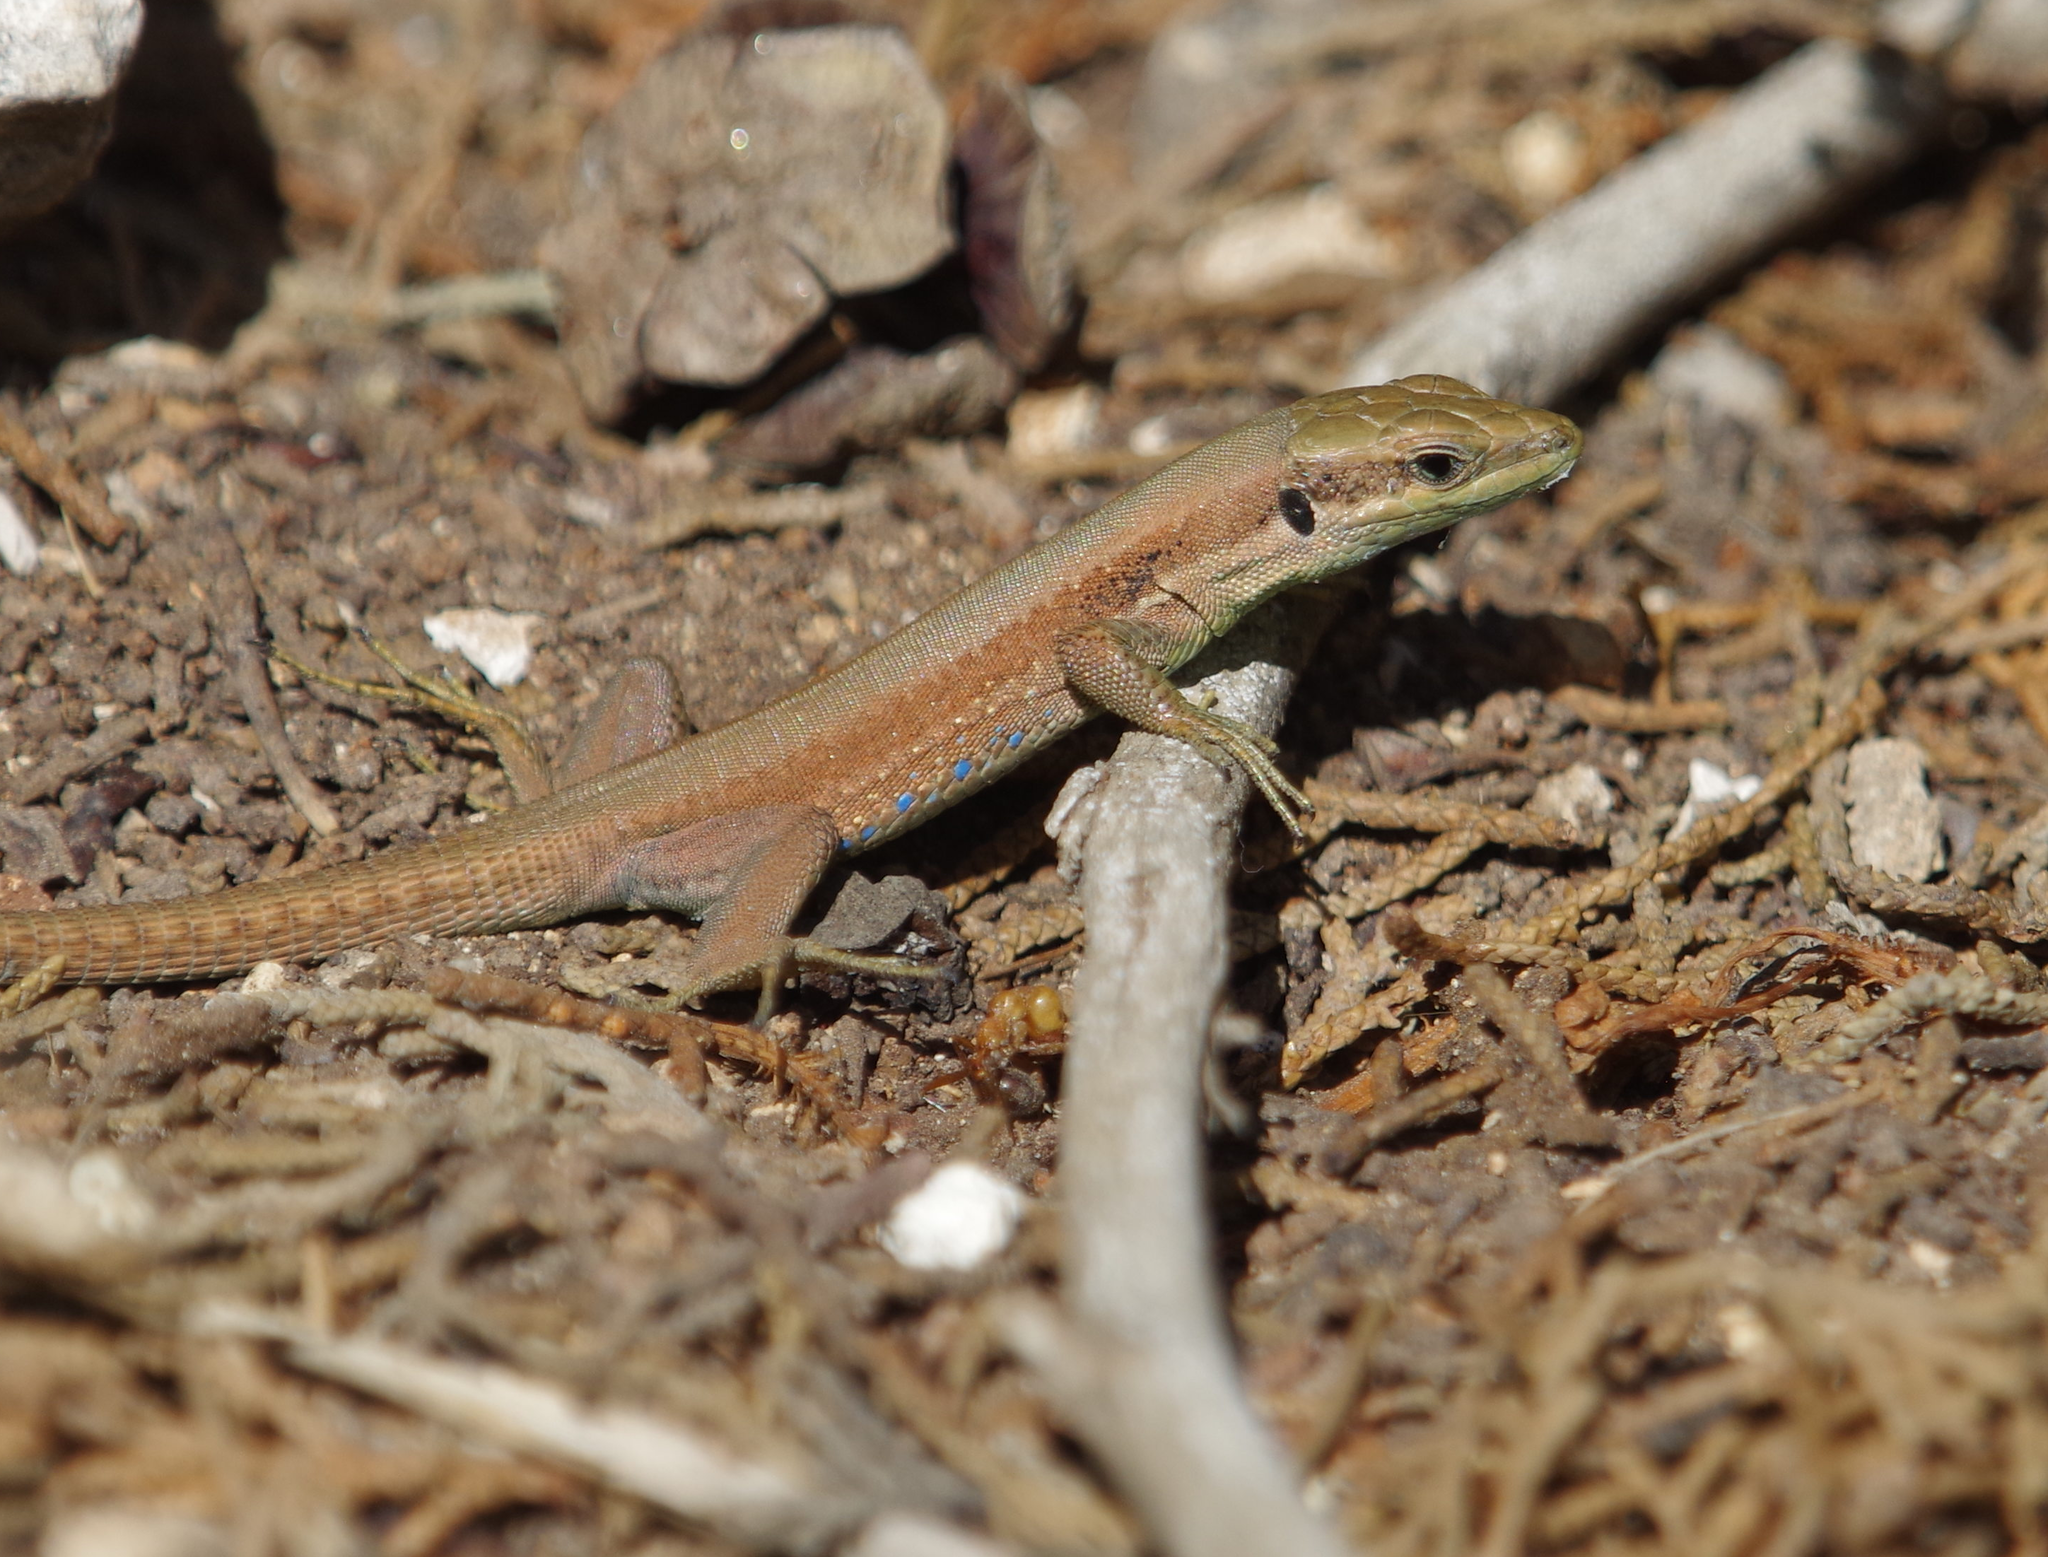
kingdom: Animalia
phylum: Chordata
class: Squamata
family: Lacertidae
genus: Phoenicolacerta
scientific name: Phoenicolacerta laevis
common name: Lebanon lizard
